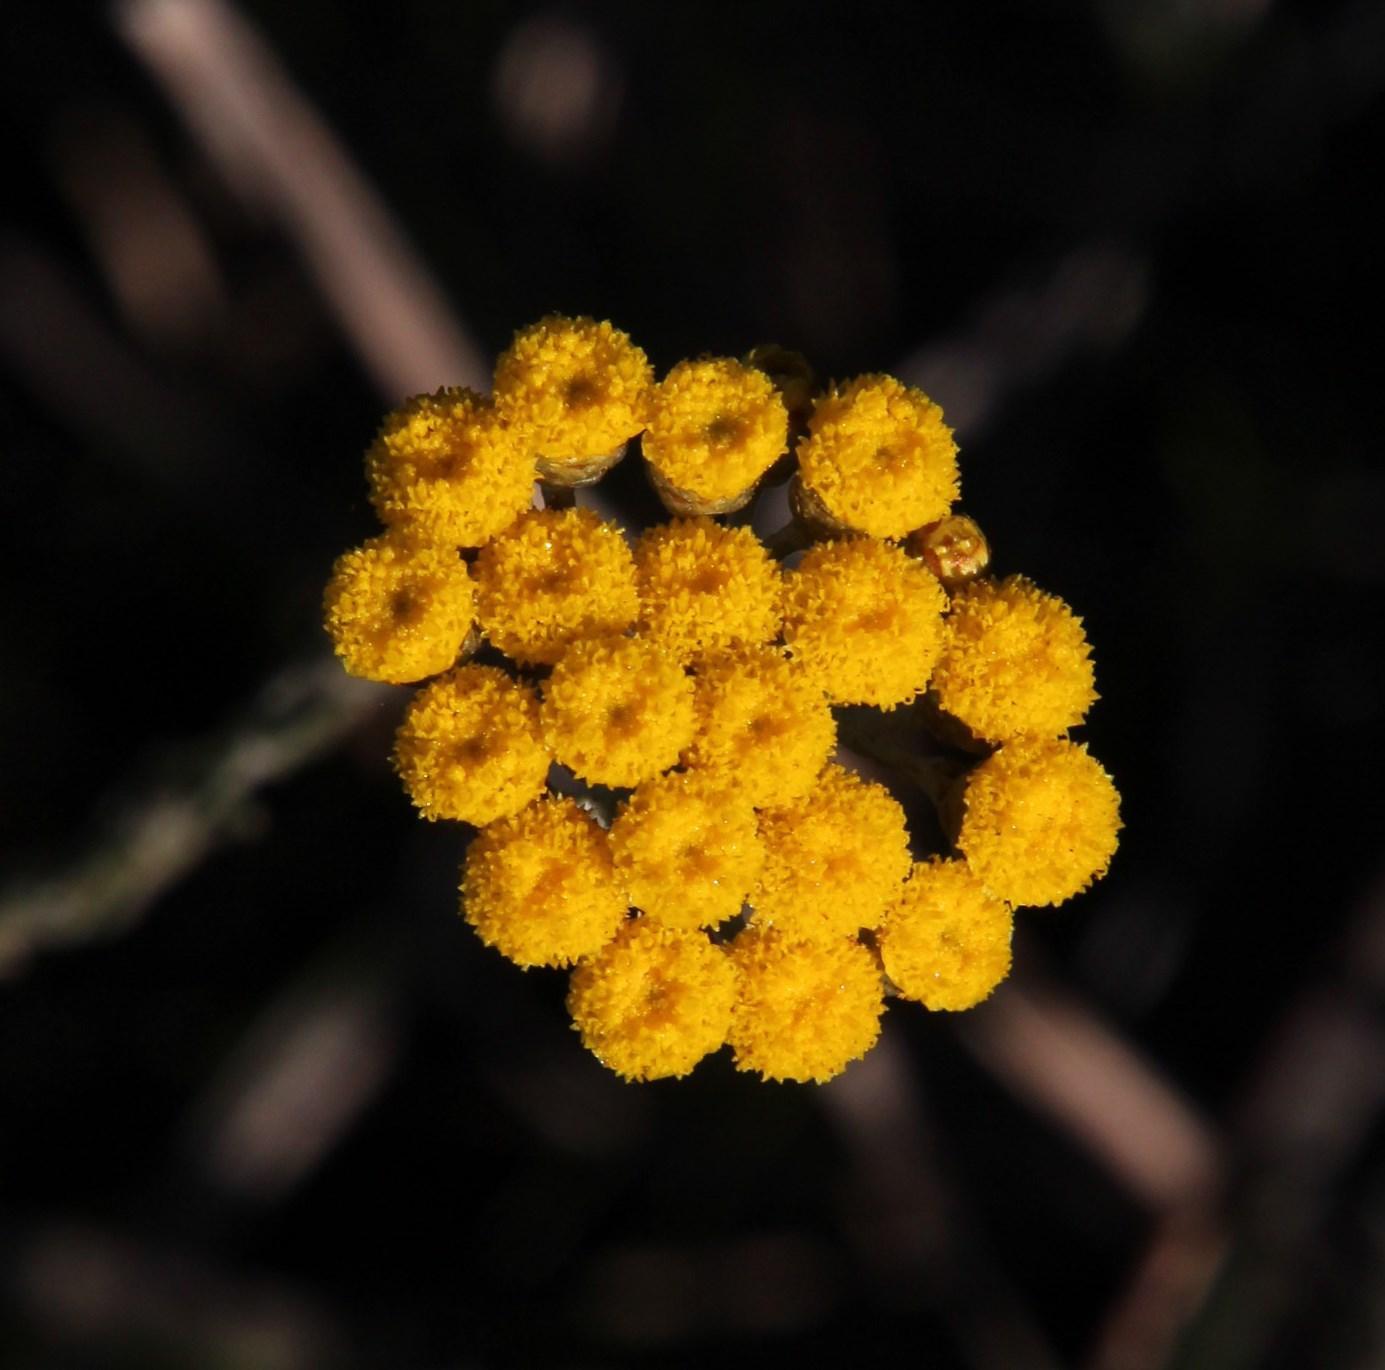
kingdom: Plantae
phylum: Tracheophyta
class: Magnoliopsida
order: Asterales
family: Asteraceae
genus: Helichrysum
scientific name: Helichrysum anomalum
